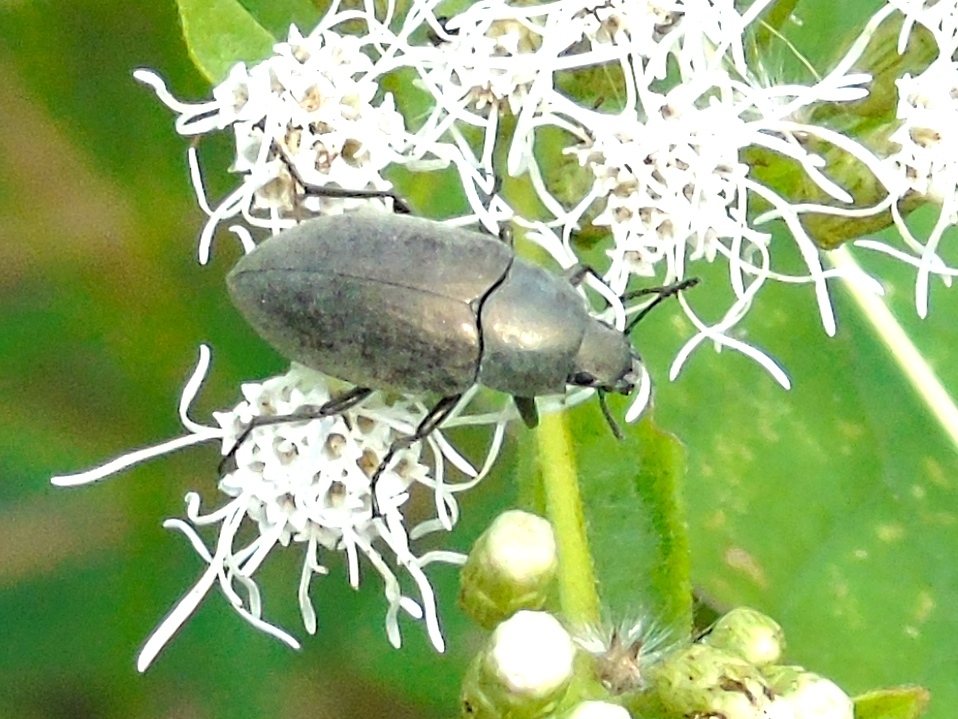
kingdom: Animalia
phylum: Arthropoda
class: Insecta
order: Coleoptera
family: Tenebrionidae
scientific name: Tenebrionidae
